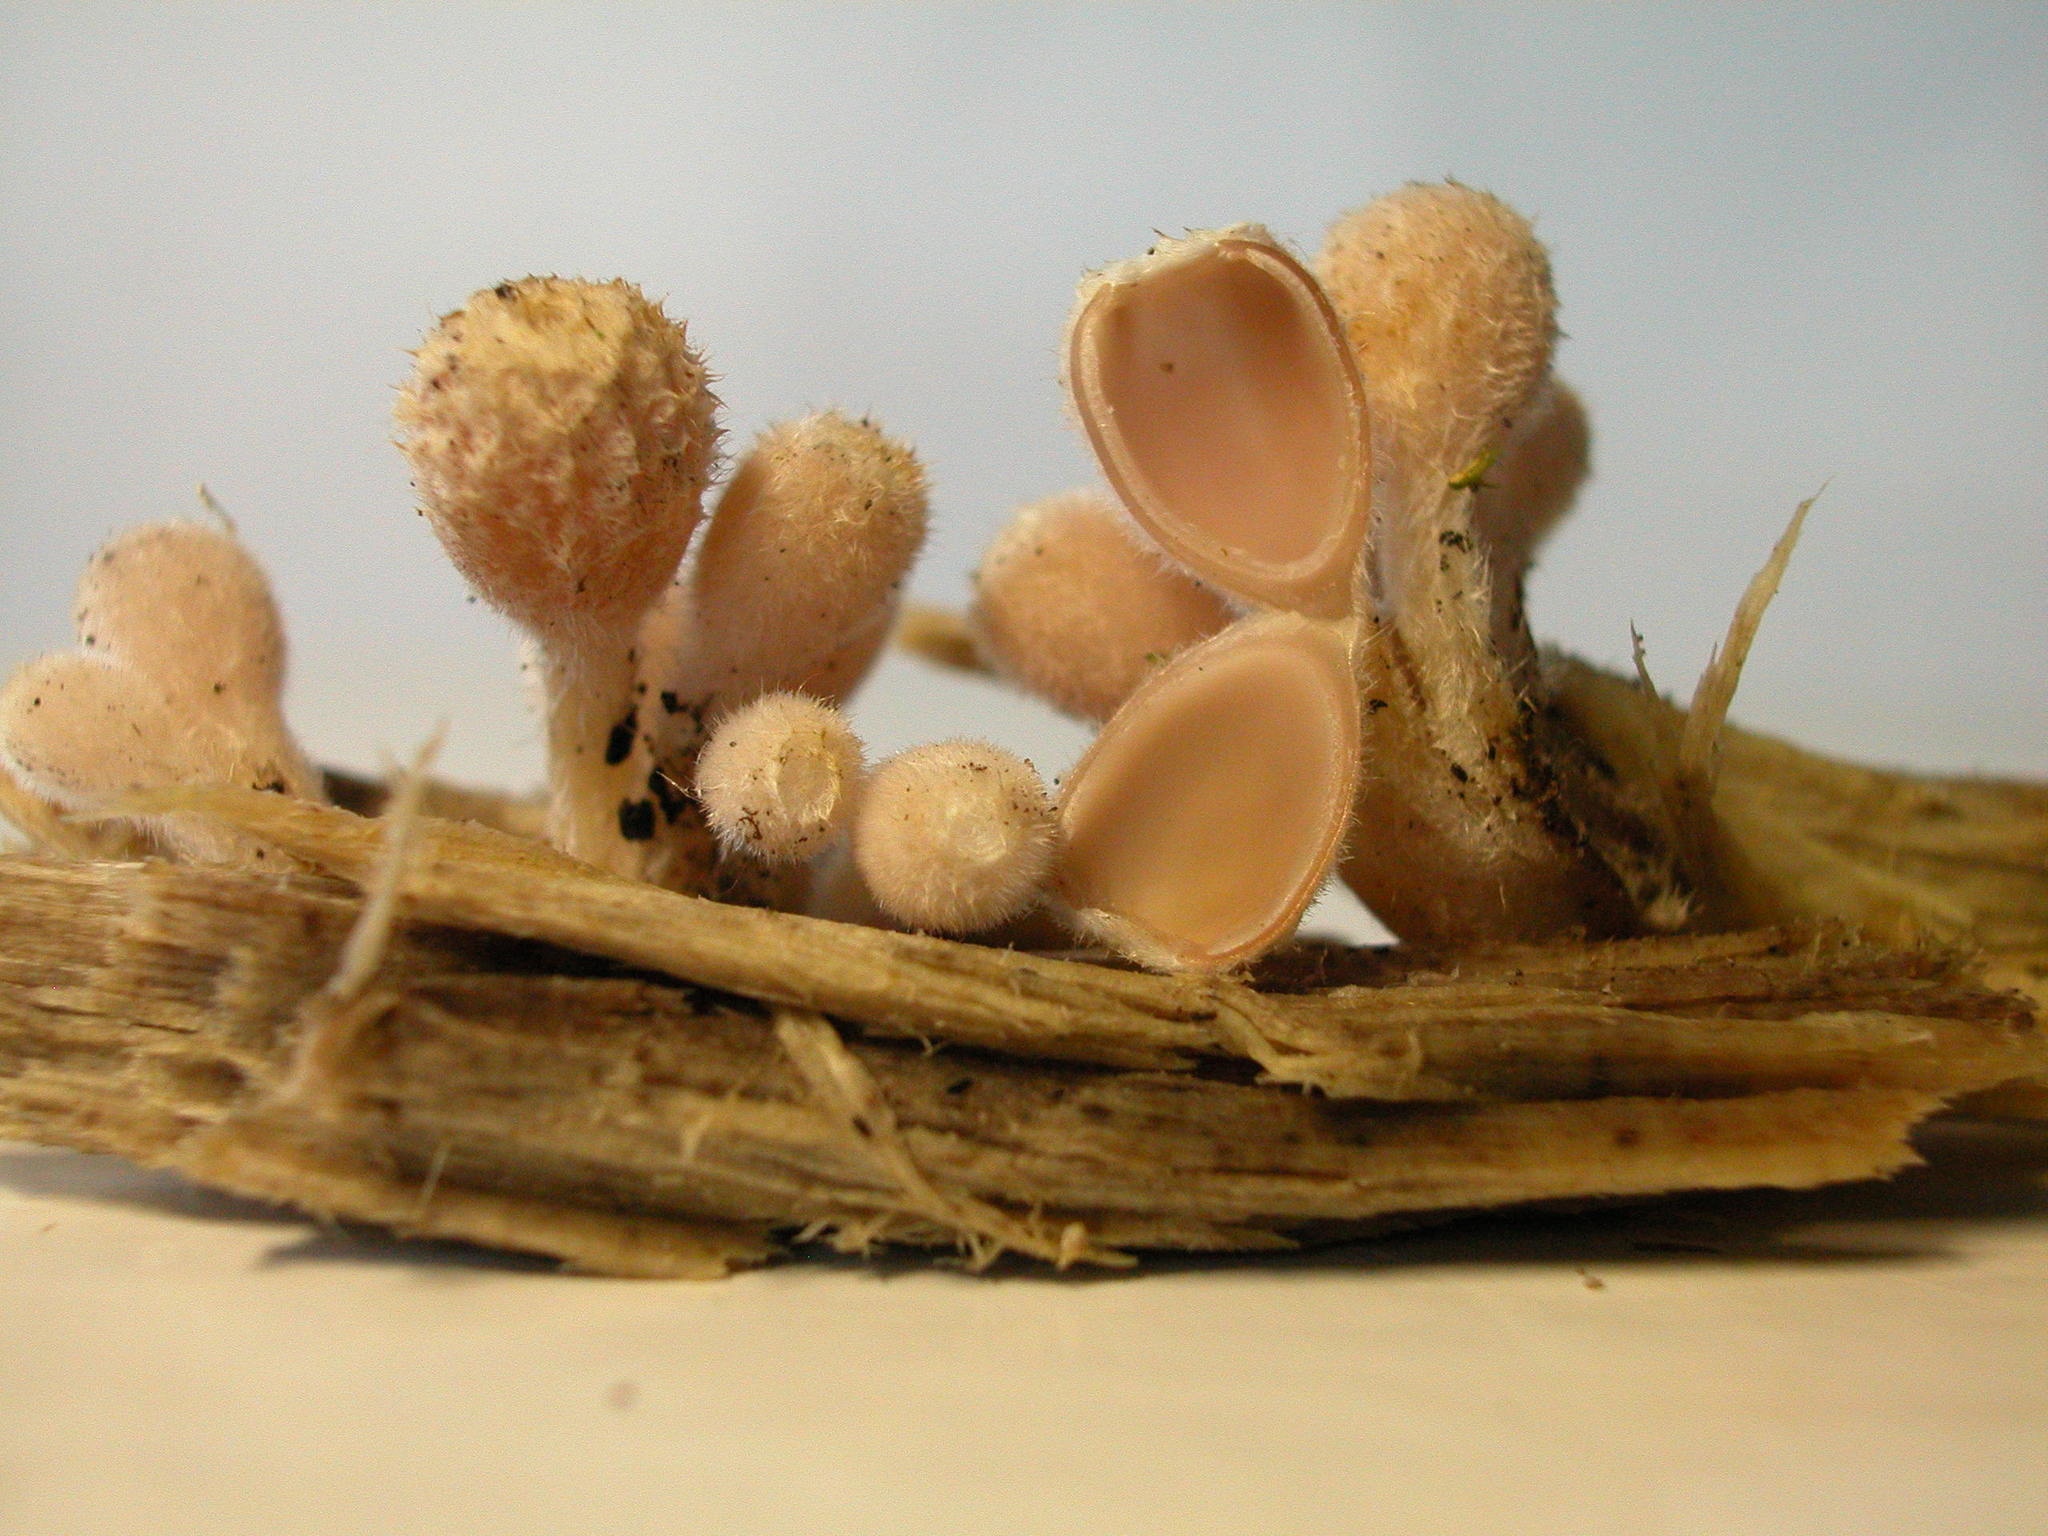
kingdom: Fungi
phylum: Ascomycota
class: Pezizomycetes
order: Pezizales
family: Sarcoscyphaceae
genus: Microstoma
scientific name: Microstoma aggregatum
